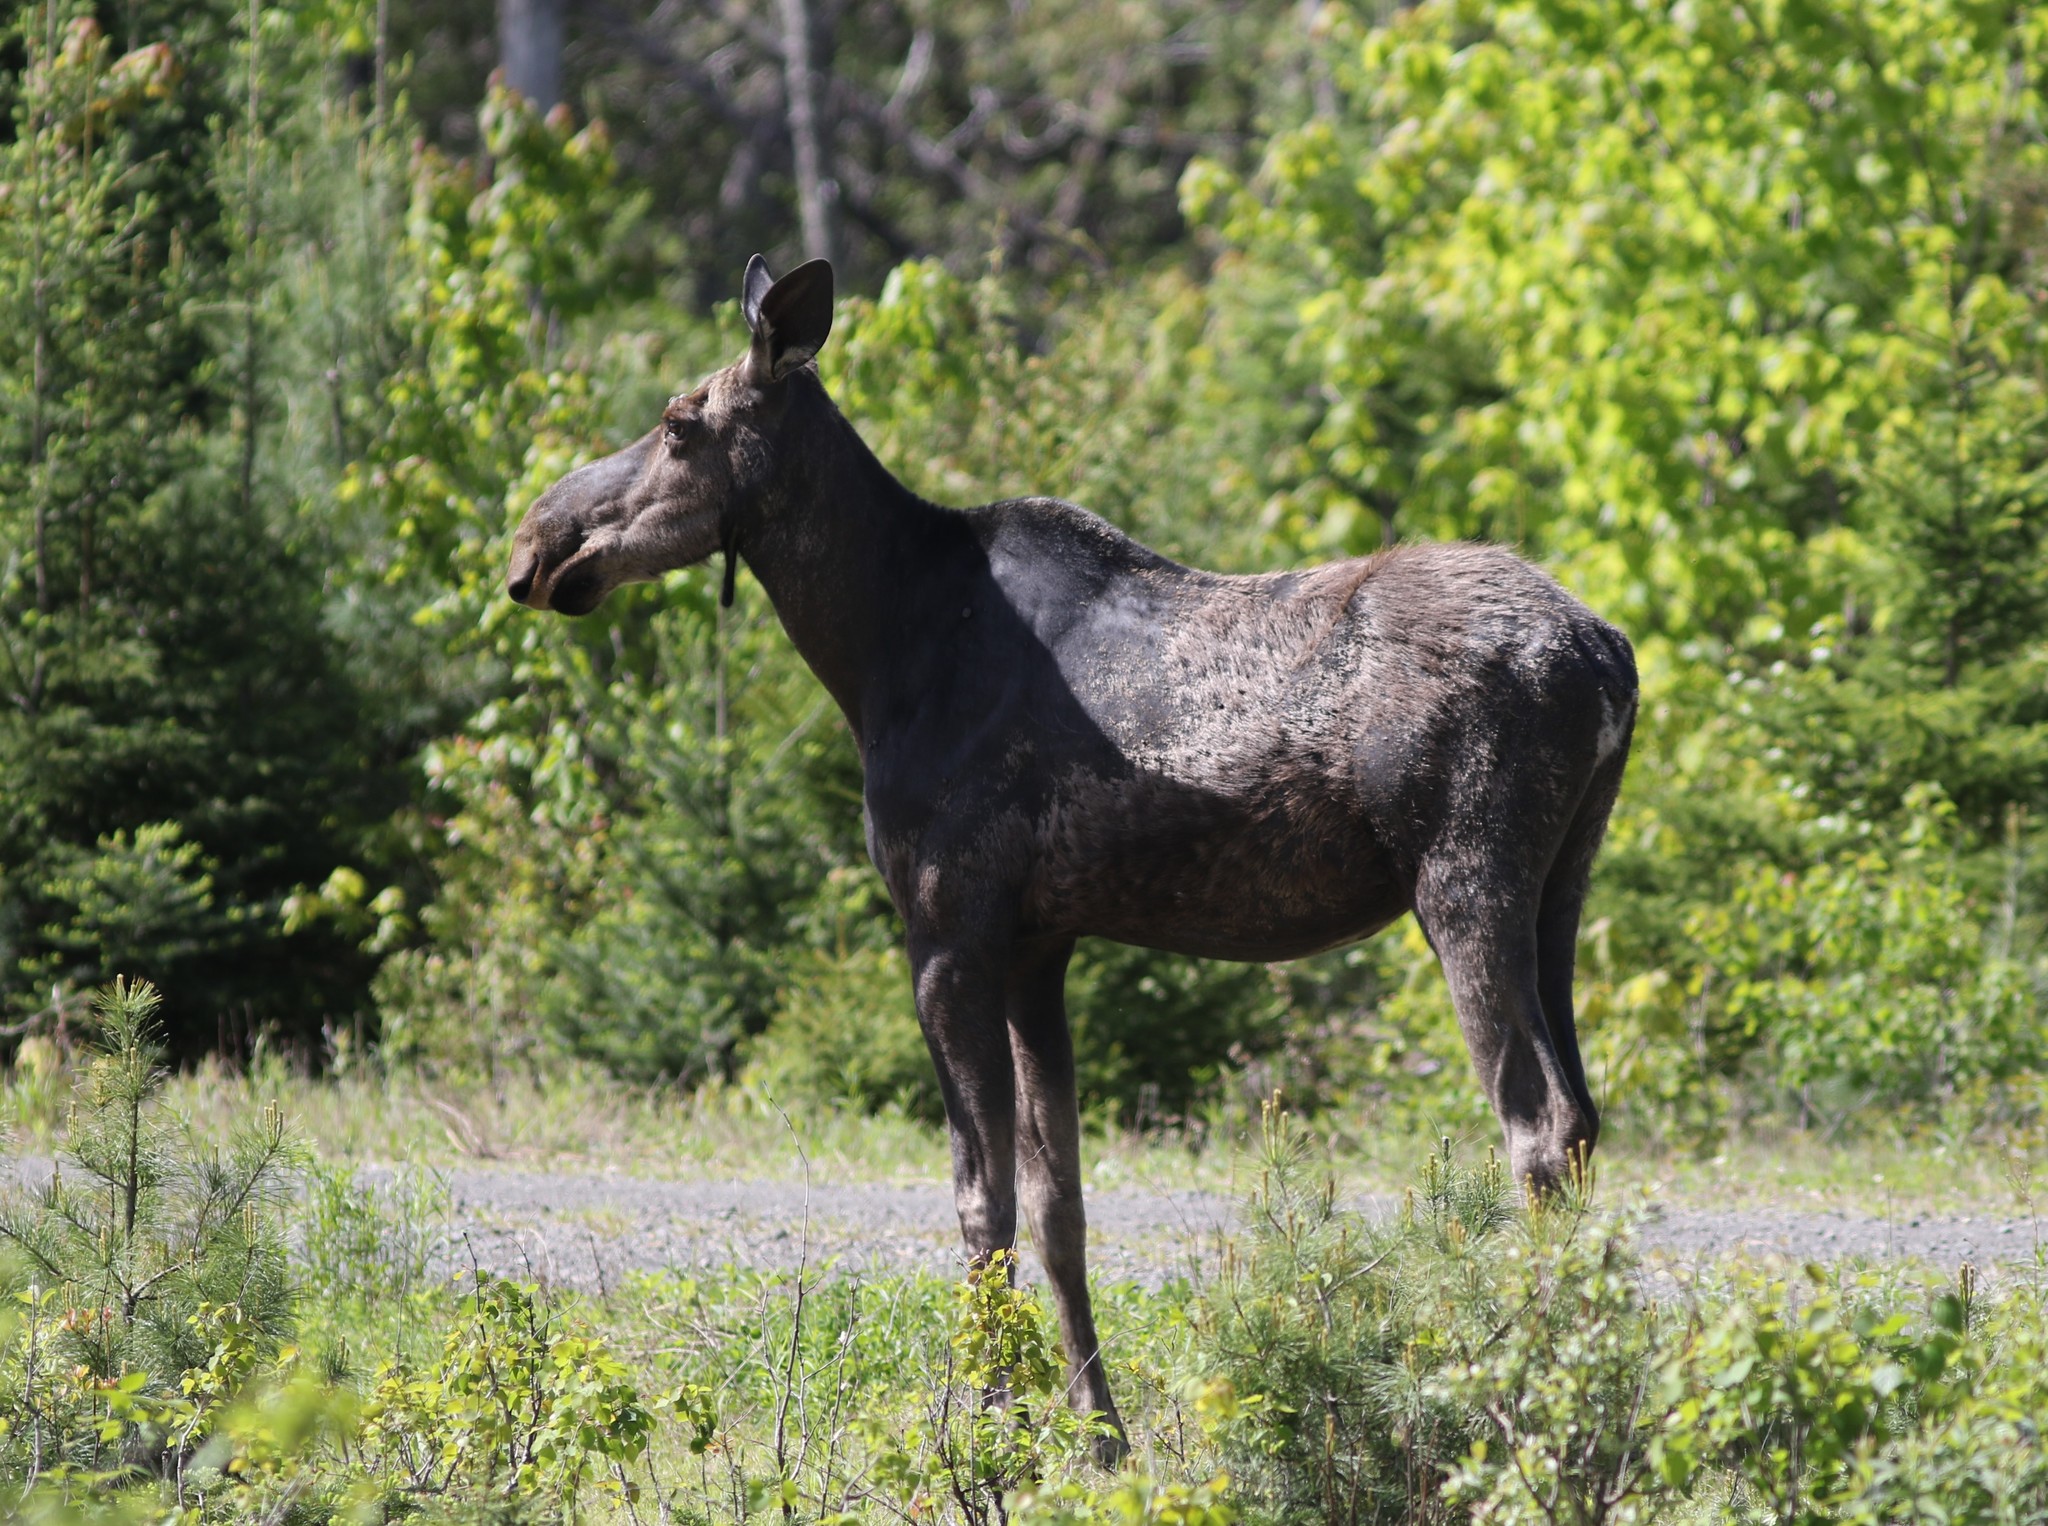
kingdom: Animalia
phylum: Chordata
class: Mammalia
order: Artiodactyla
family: Cervidae
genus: Alces
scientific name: Alces alces
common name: Moose
